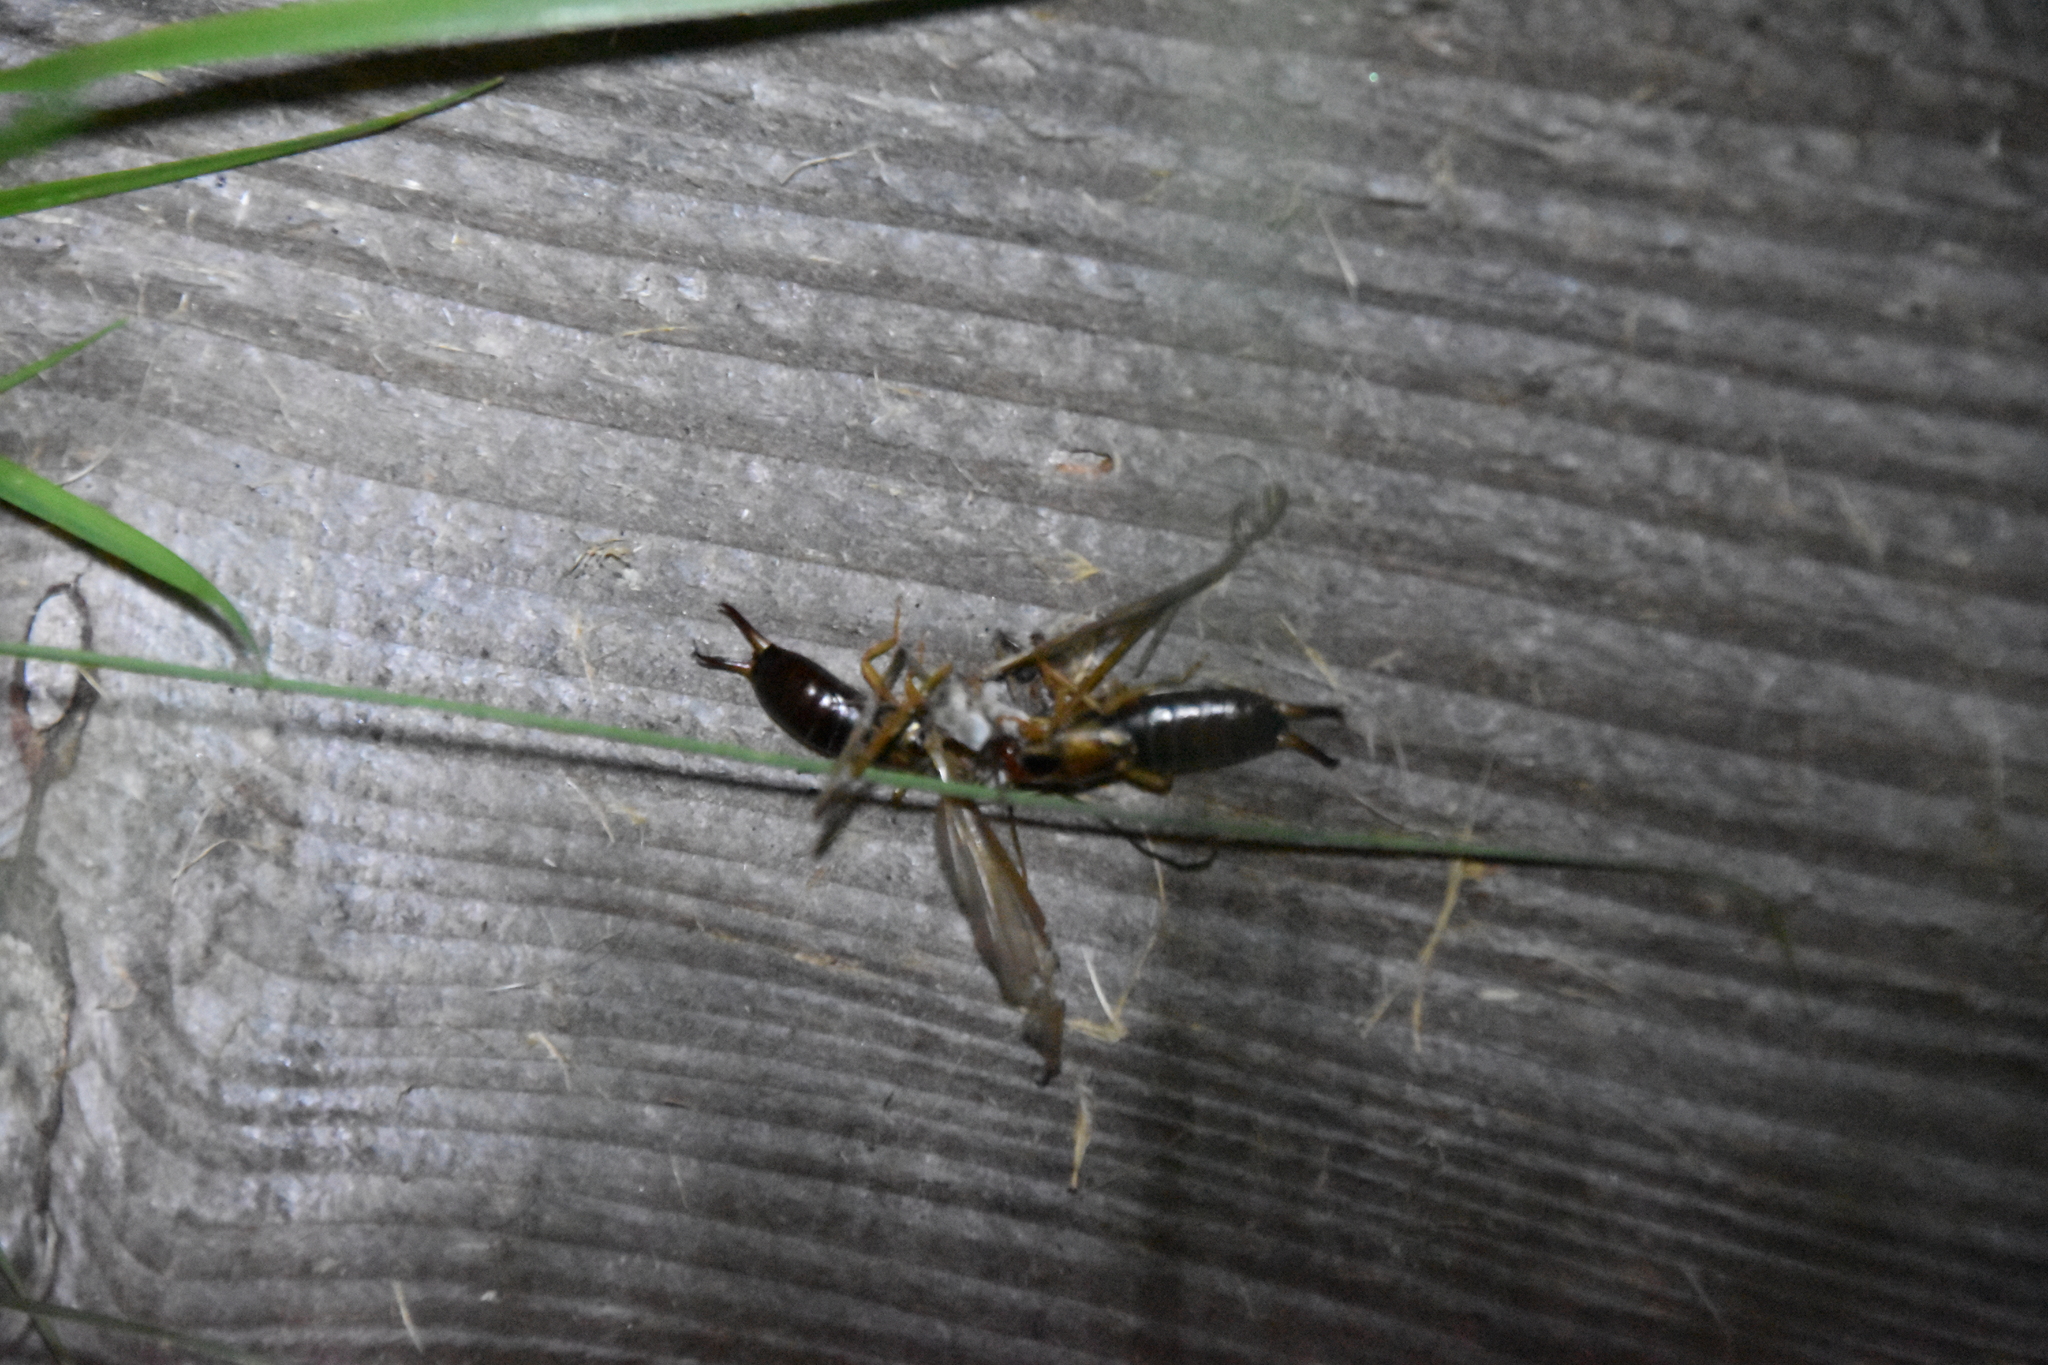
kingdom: Animalia
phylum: Arthropoda
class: Insecta
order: Dermaptera
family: Forficulidae
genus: Forficula
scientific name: Forficula dentata
